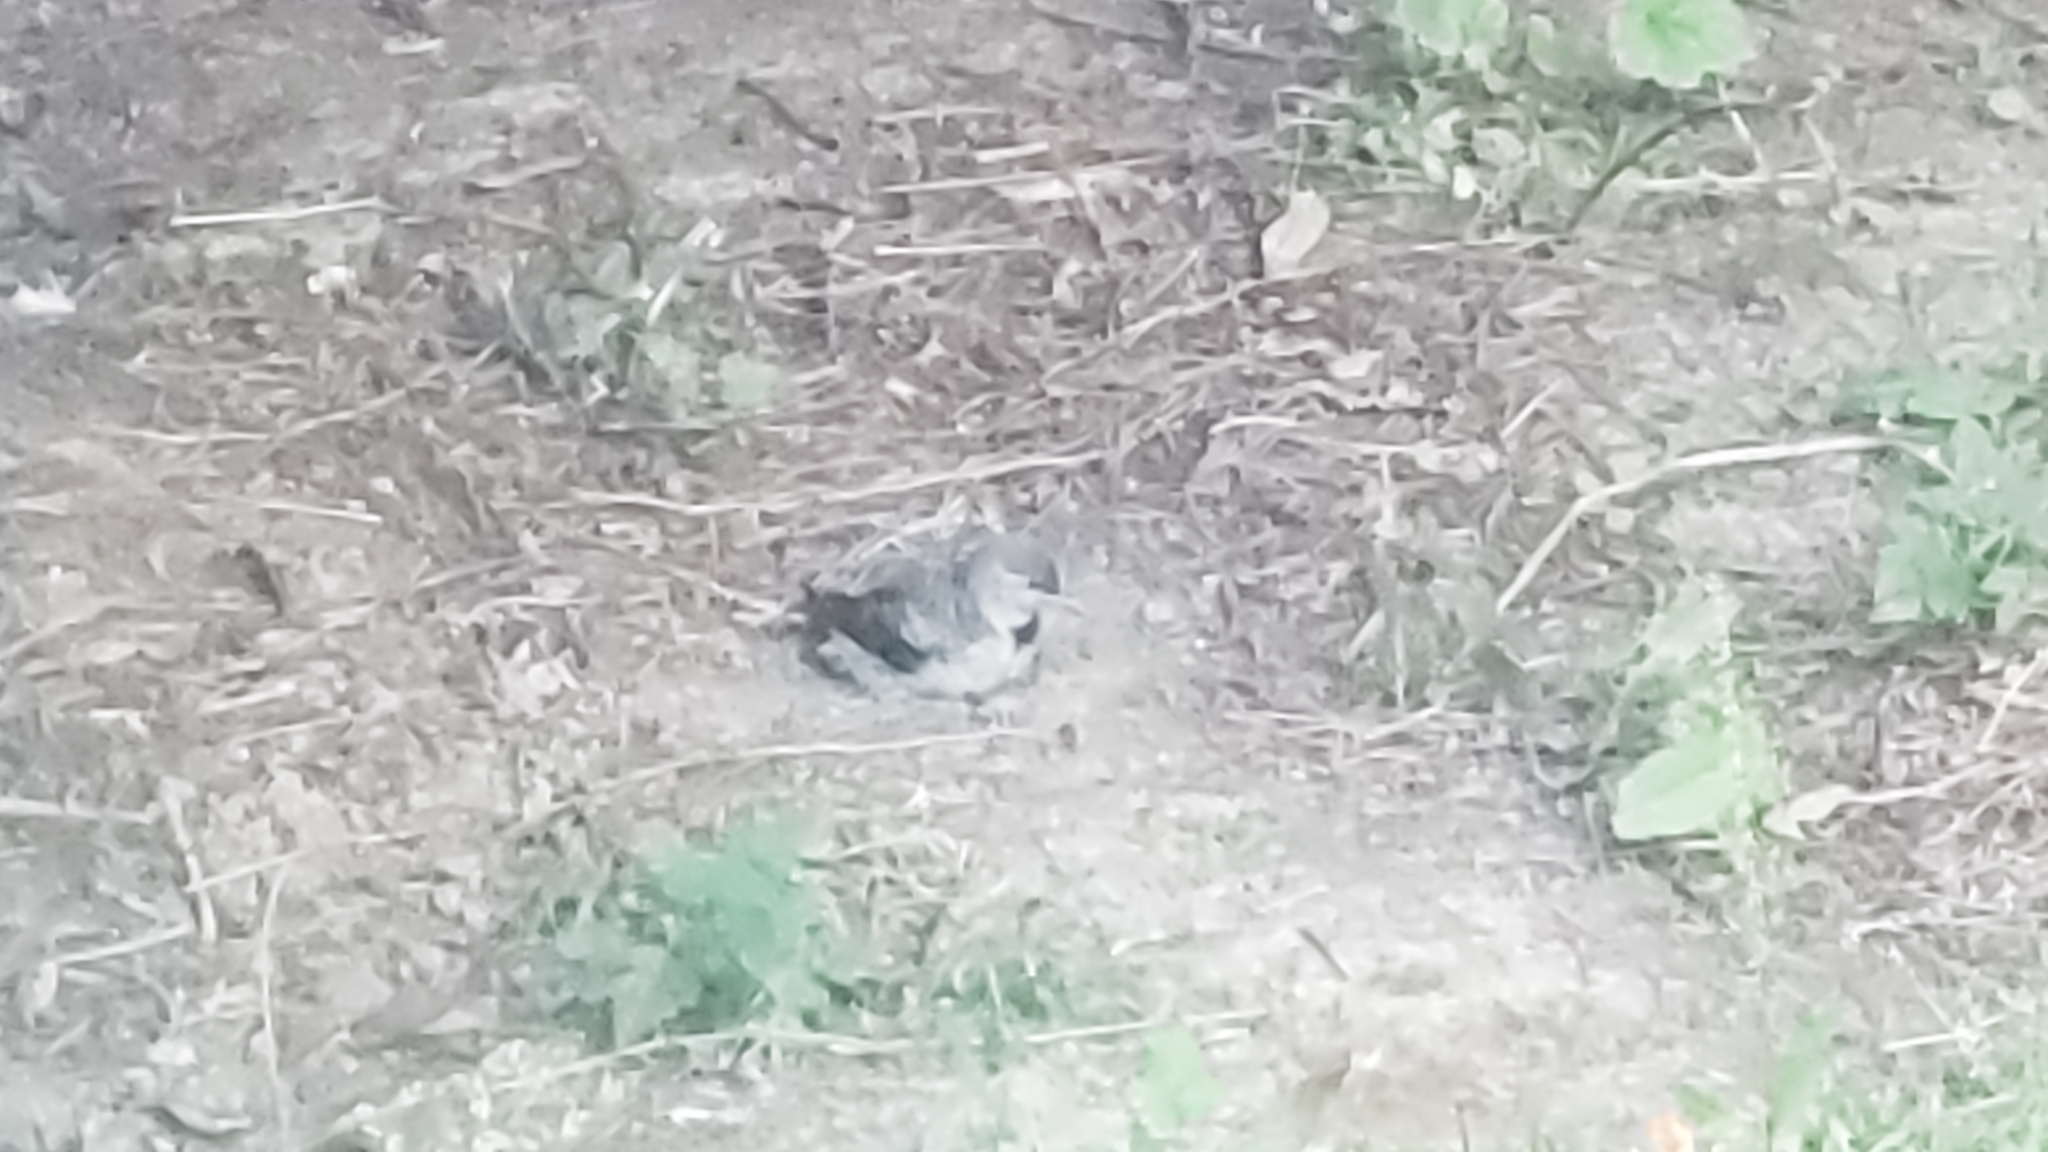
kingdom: Animalia
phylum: Chordata
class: Aves
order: Piciformes
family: Picidae
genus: Colaptes
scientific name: Colaptes auratus
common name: Northern flicker
